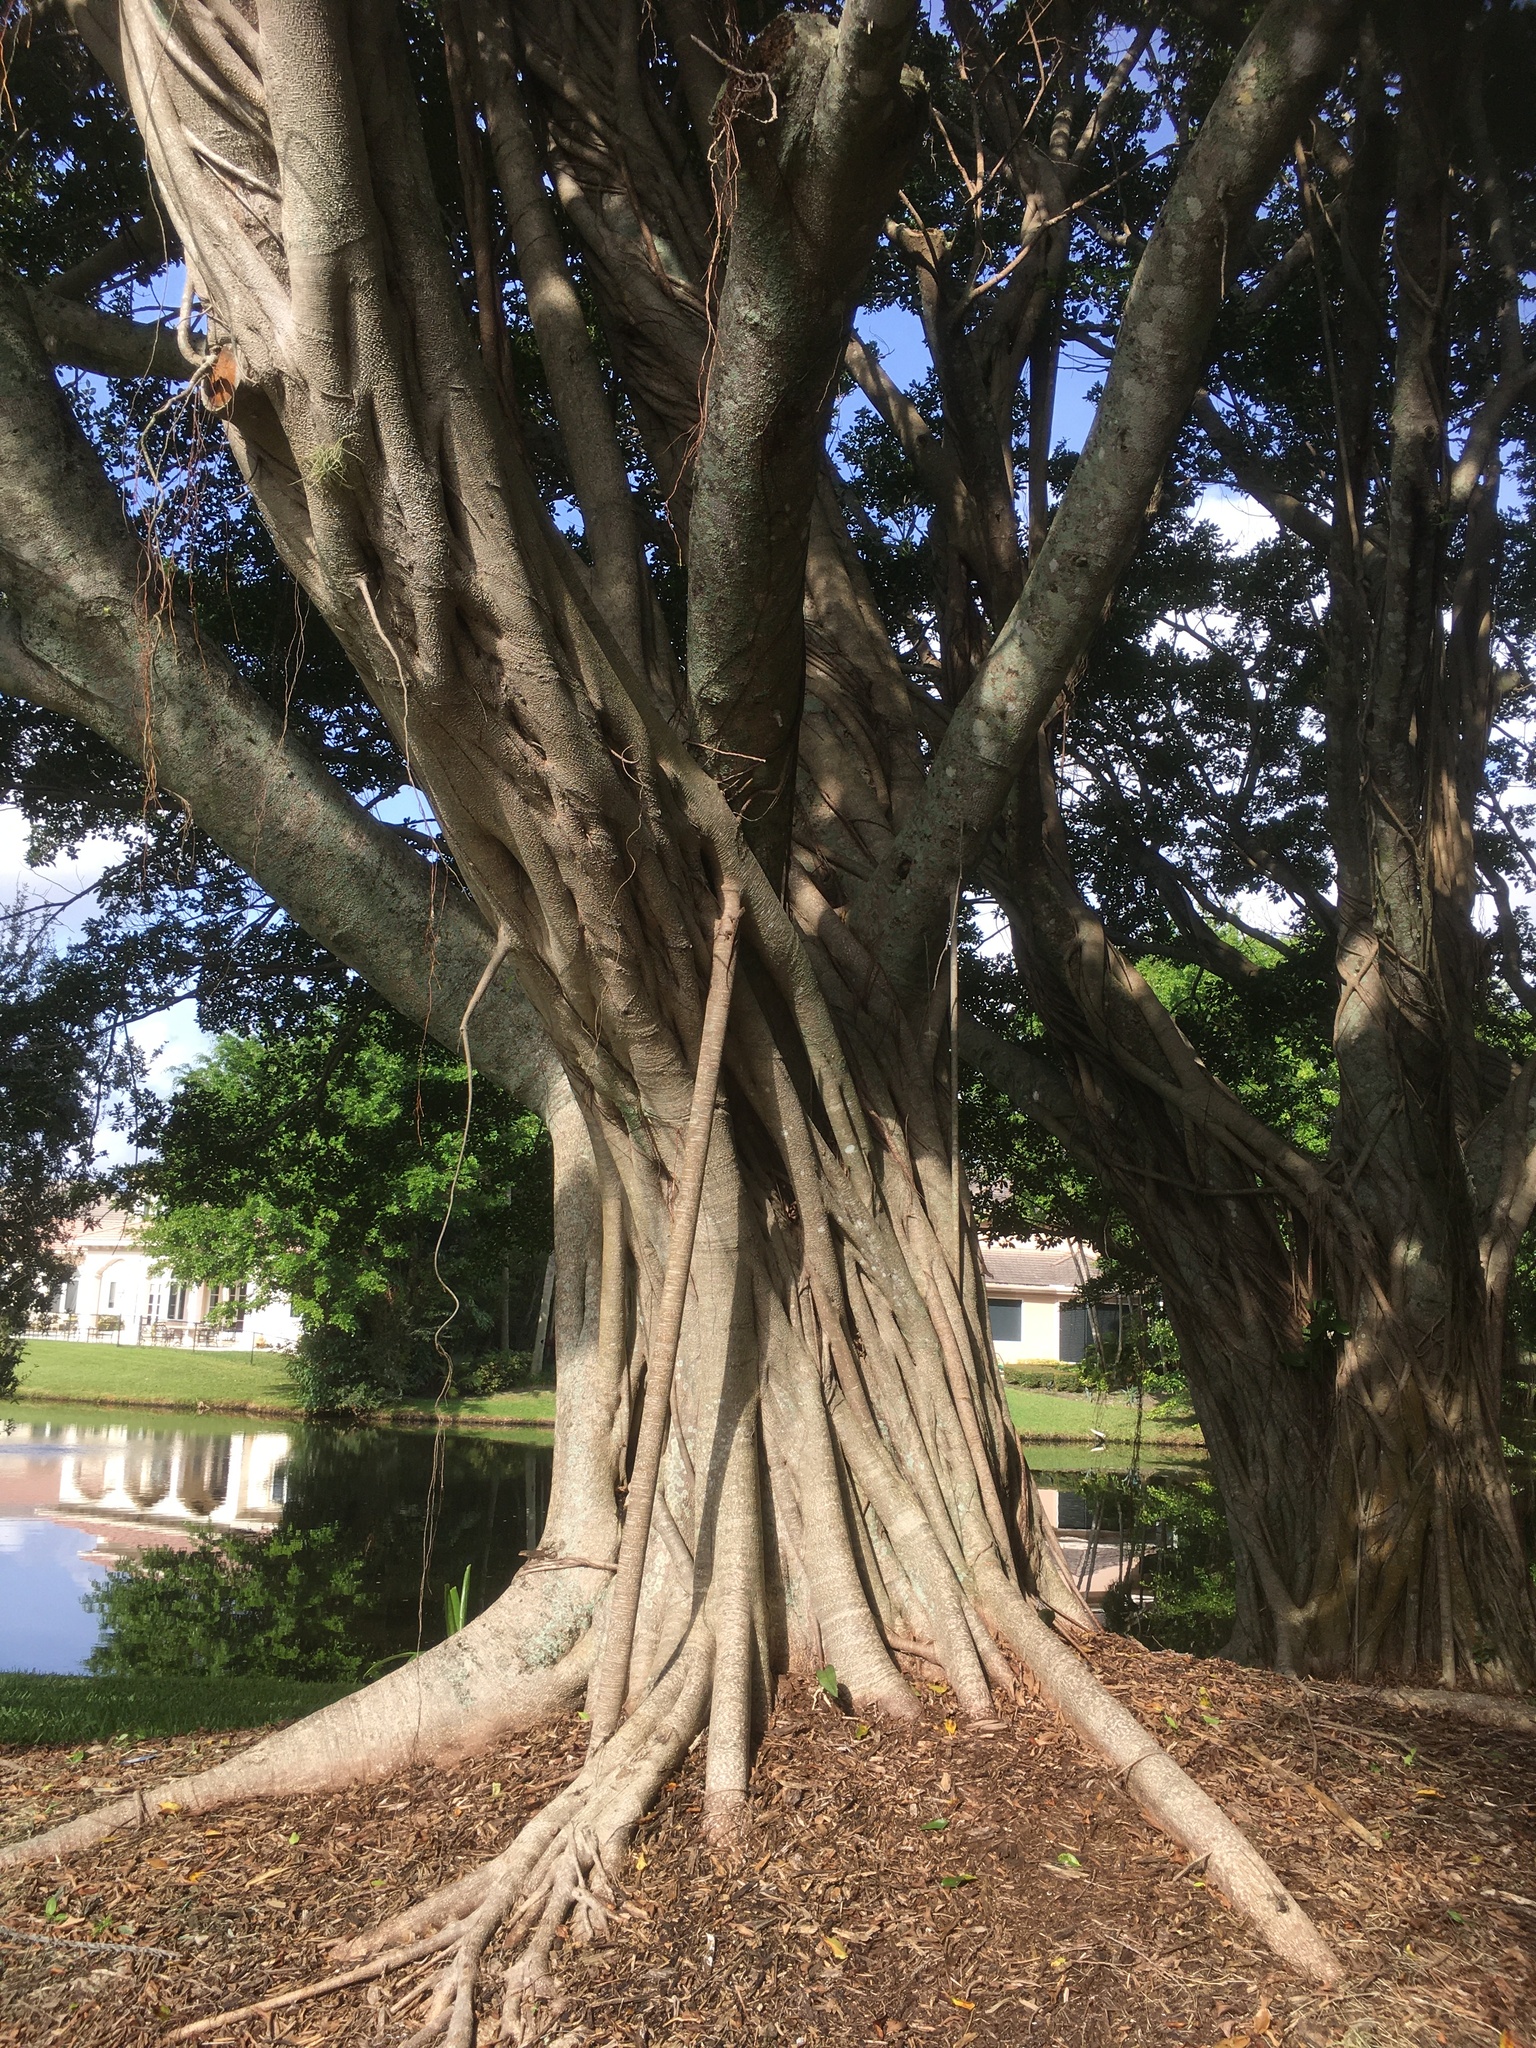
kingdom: Plantae
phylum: Tracheophyta
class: Magnoliopsida
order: Rosales
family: Moraceae
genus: Ficus
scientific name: Ficus microcarpa
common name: Chinese banyan
